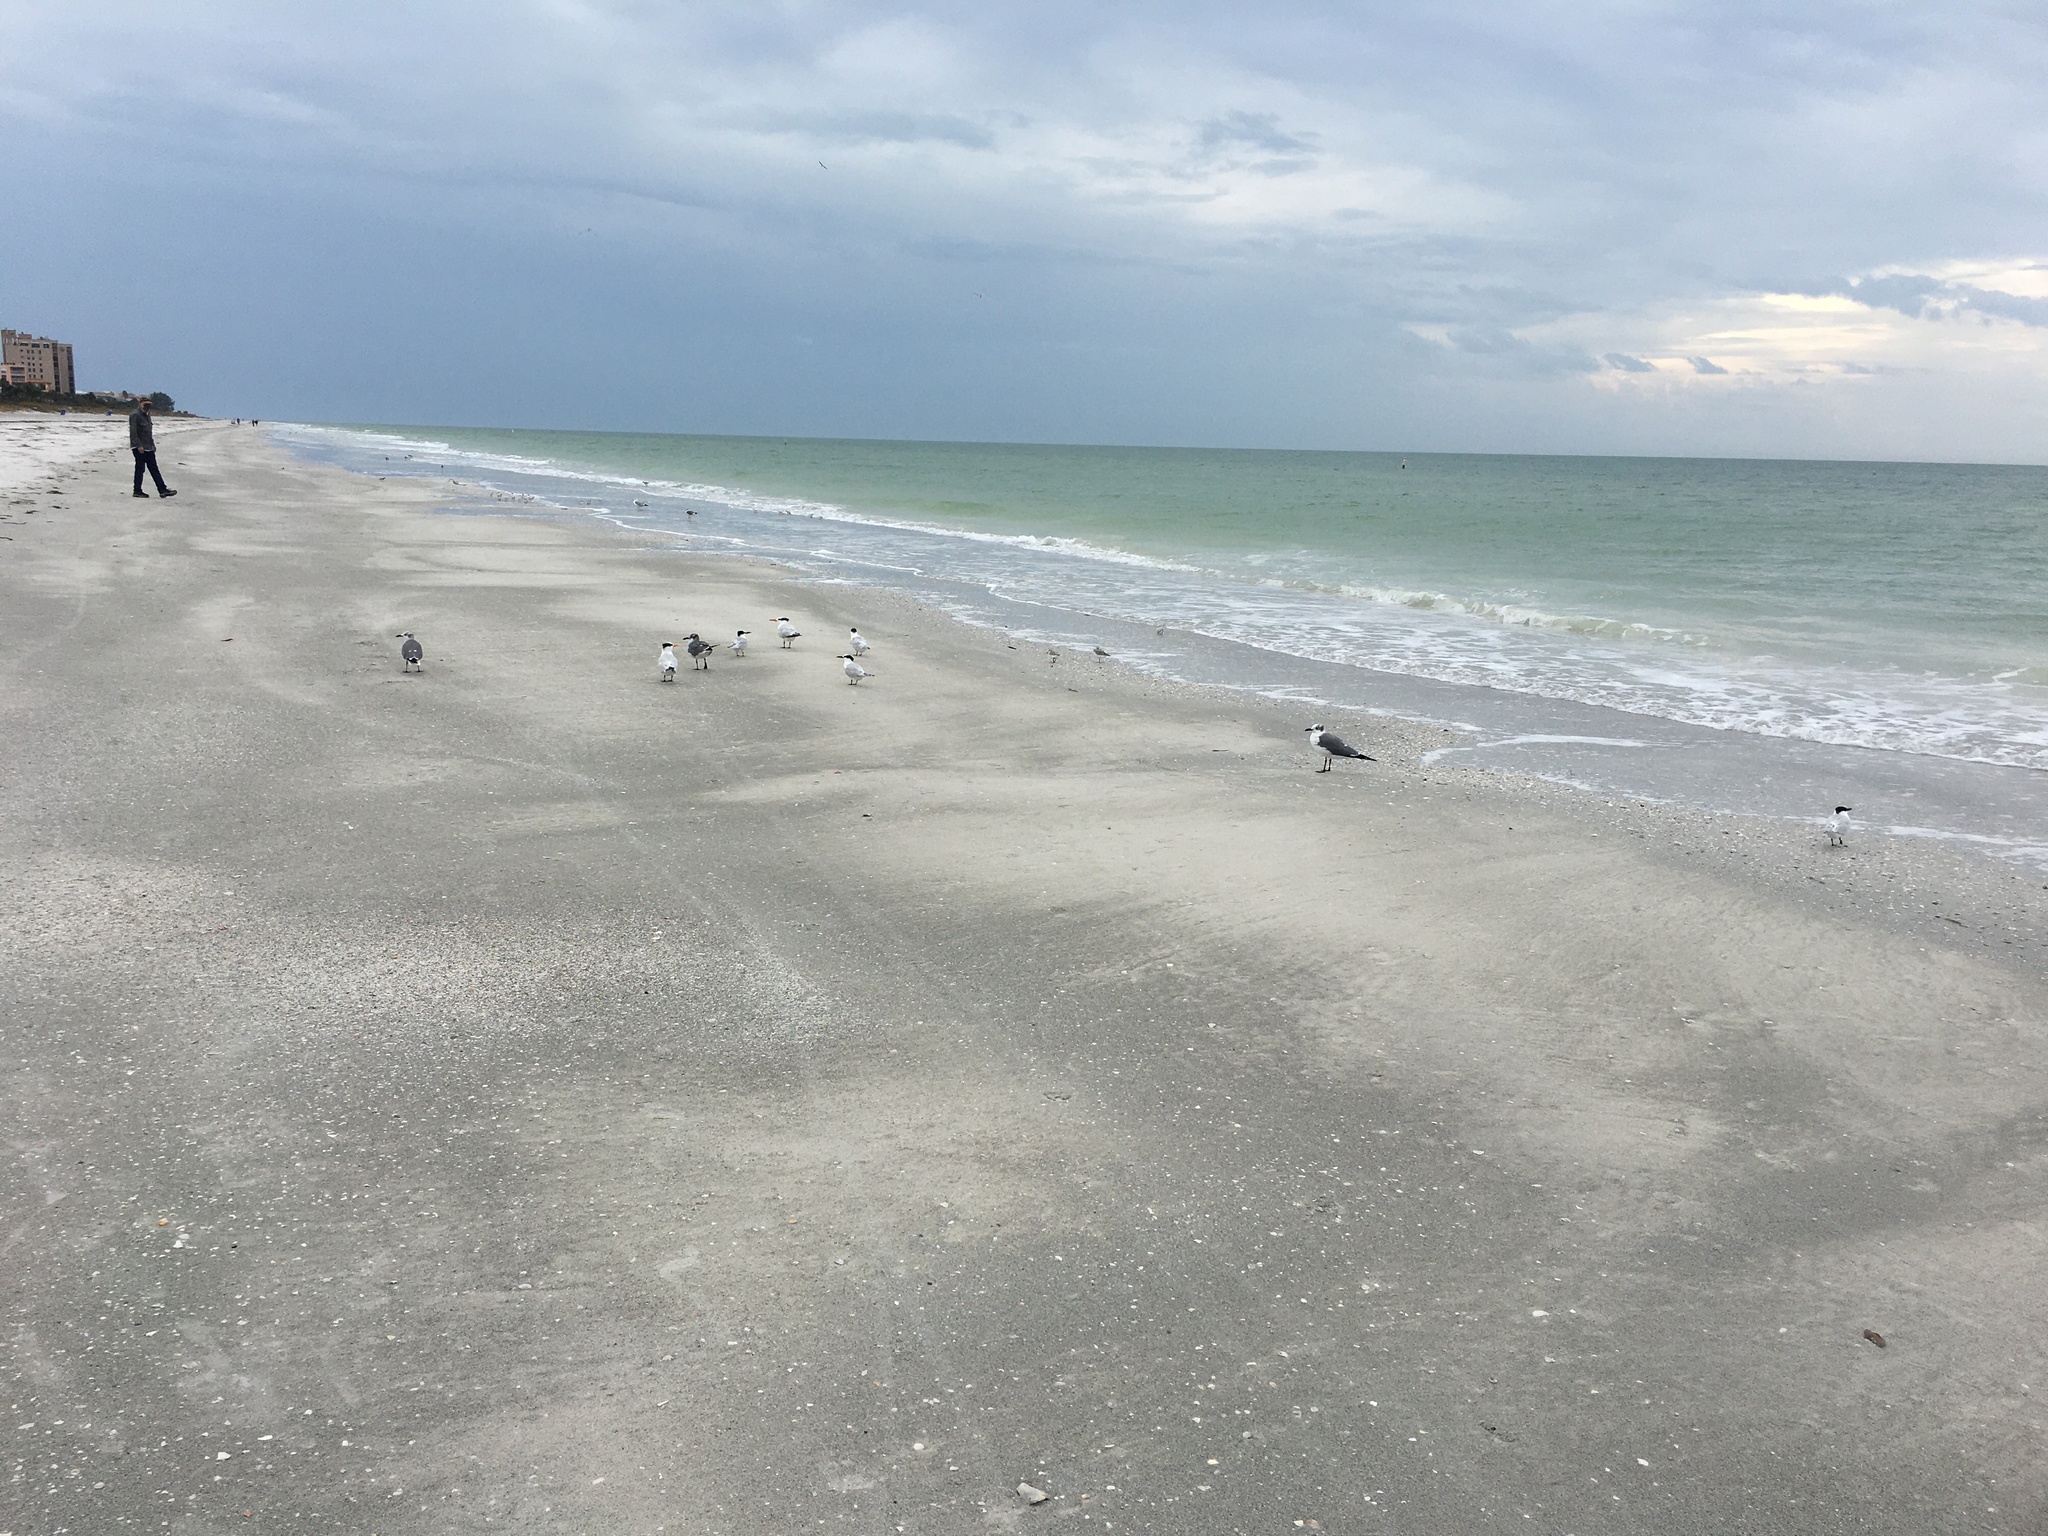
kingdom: Animalia
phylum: Chordata
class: Aves
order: Charadriiformes
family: Laridae
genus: Thalasseus
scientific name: Thalasseus sandvicensis
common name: Sandwich tern
